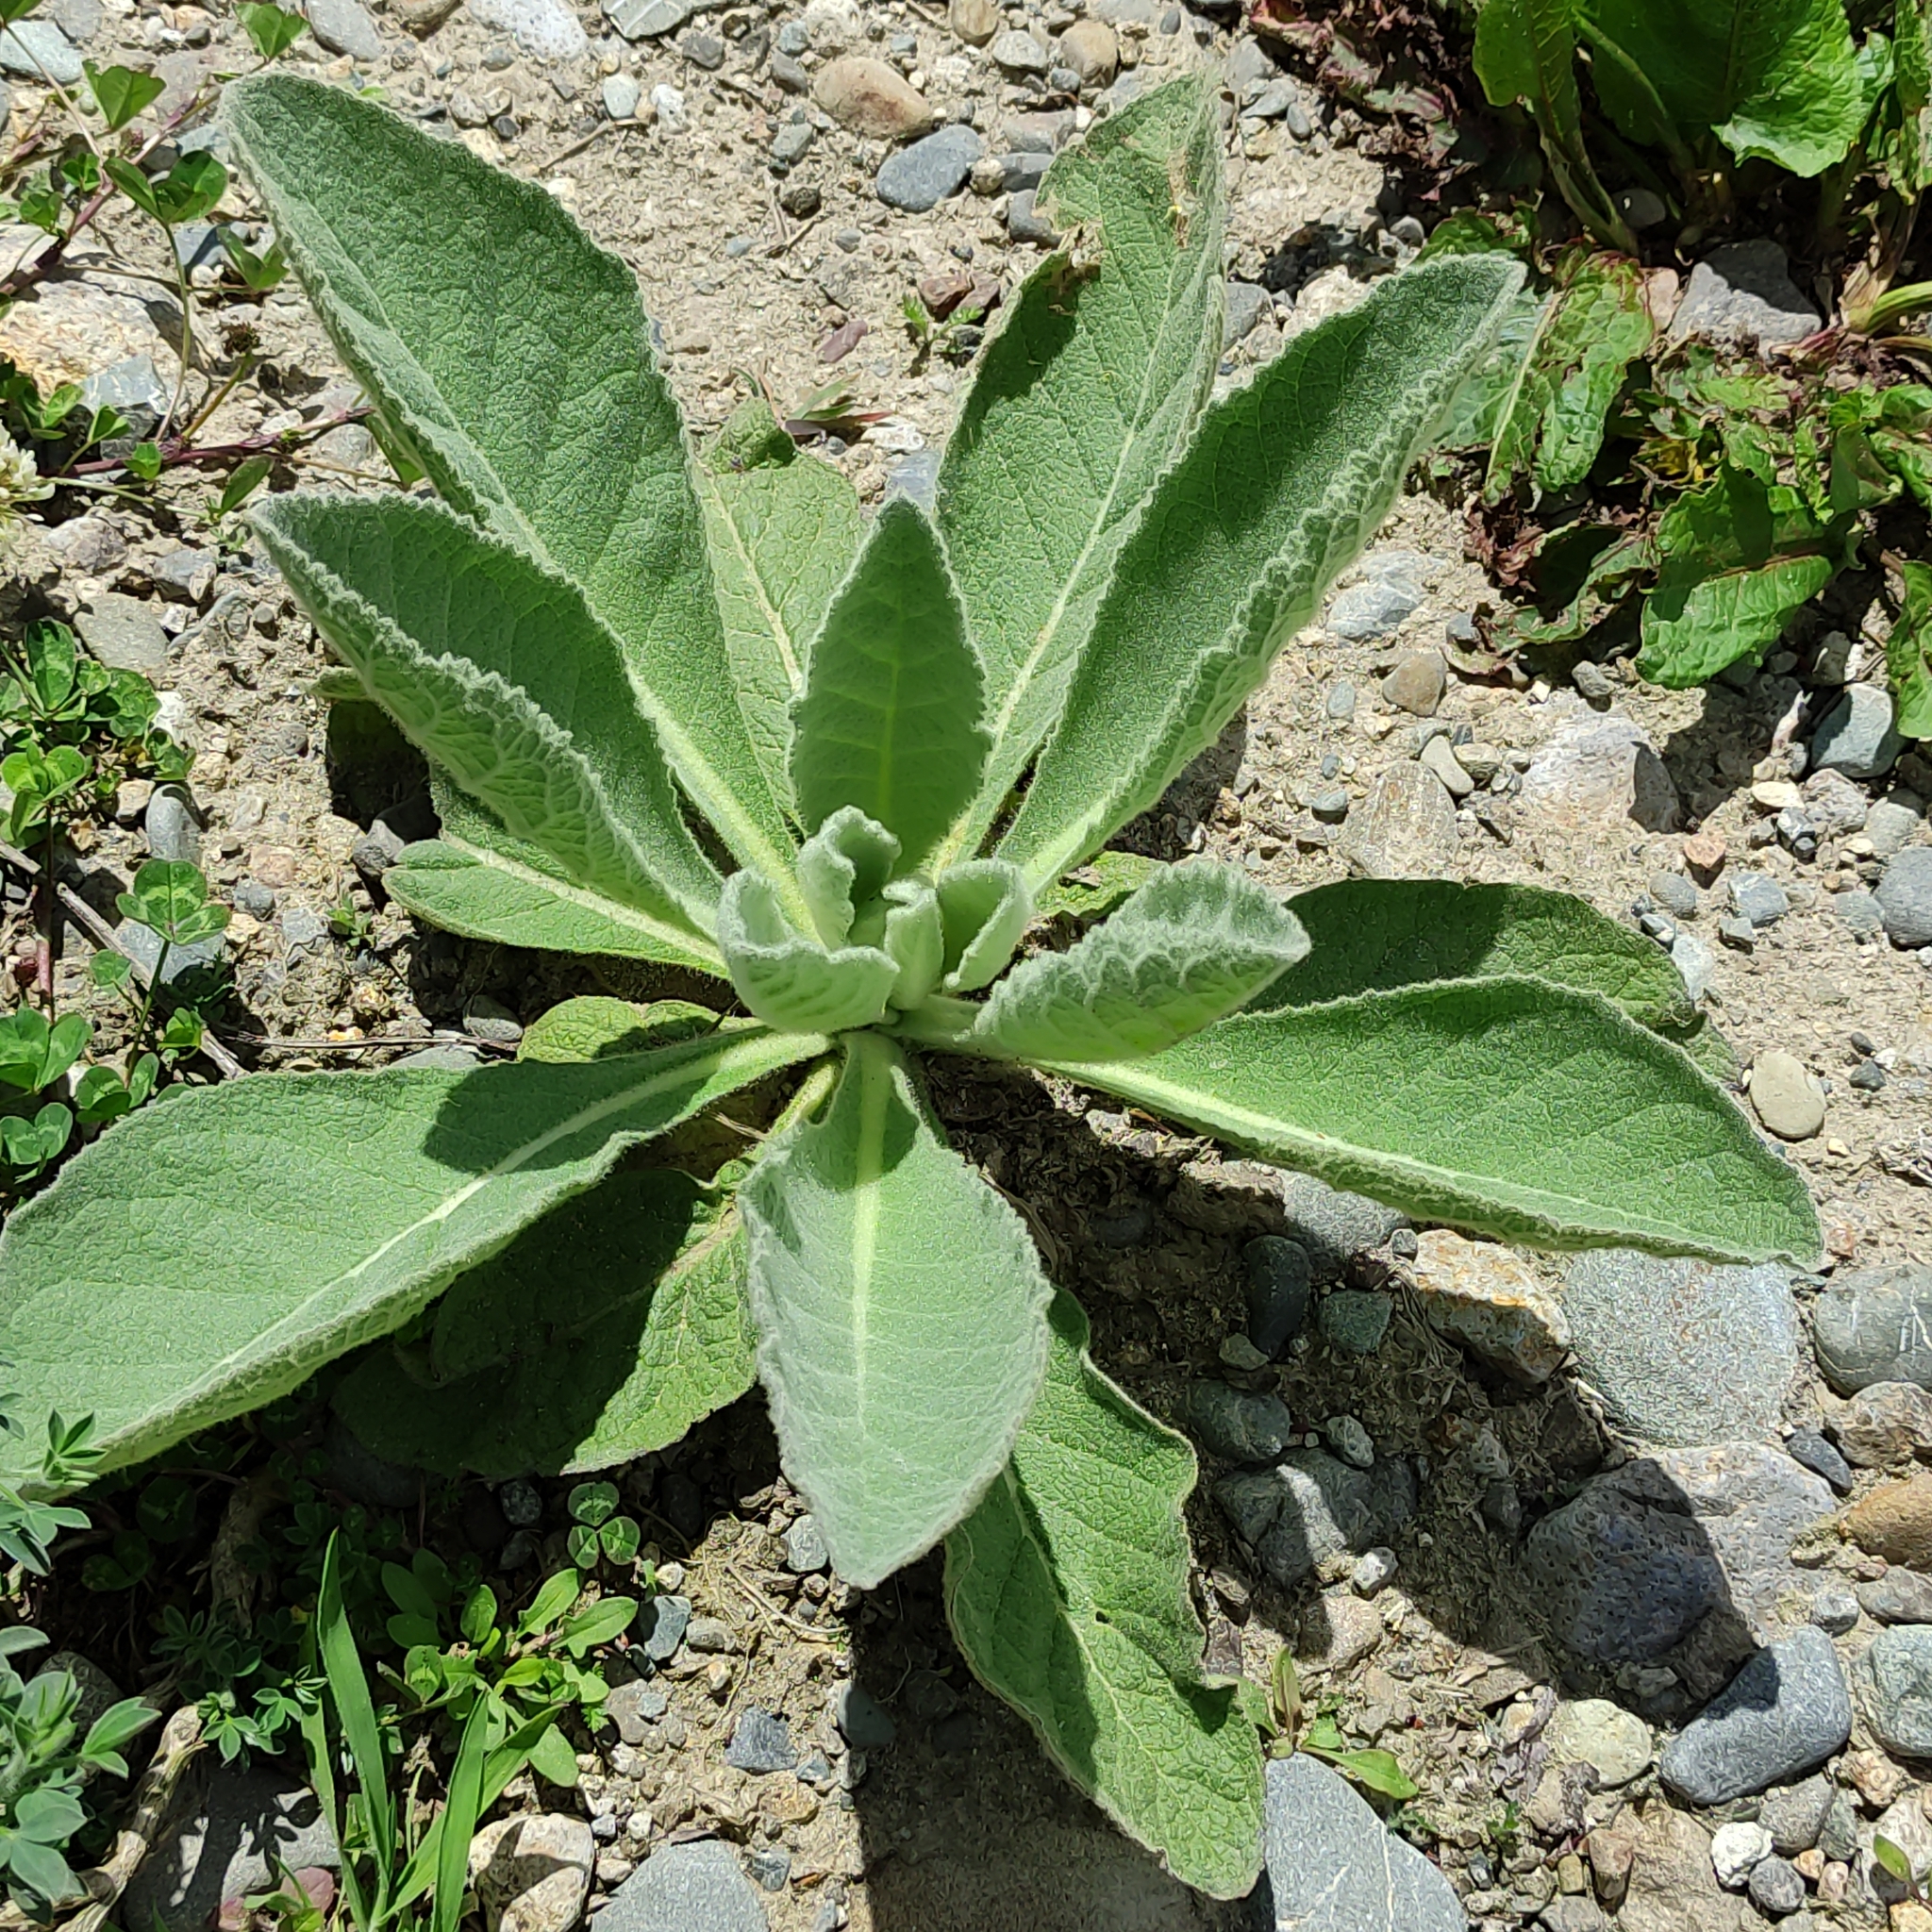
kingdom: Plantae
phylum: Tracheophyta
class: Magnoliopsida
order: Lamiales
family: Scrophulariaceae
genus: Verbascum
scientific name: Verbascum thapsus
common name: Common mullein
